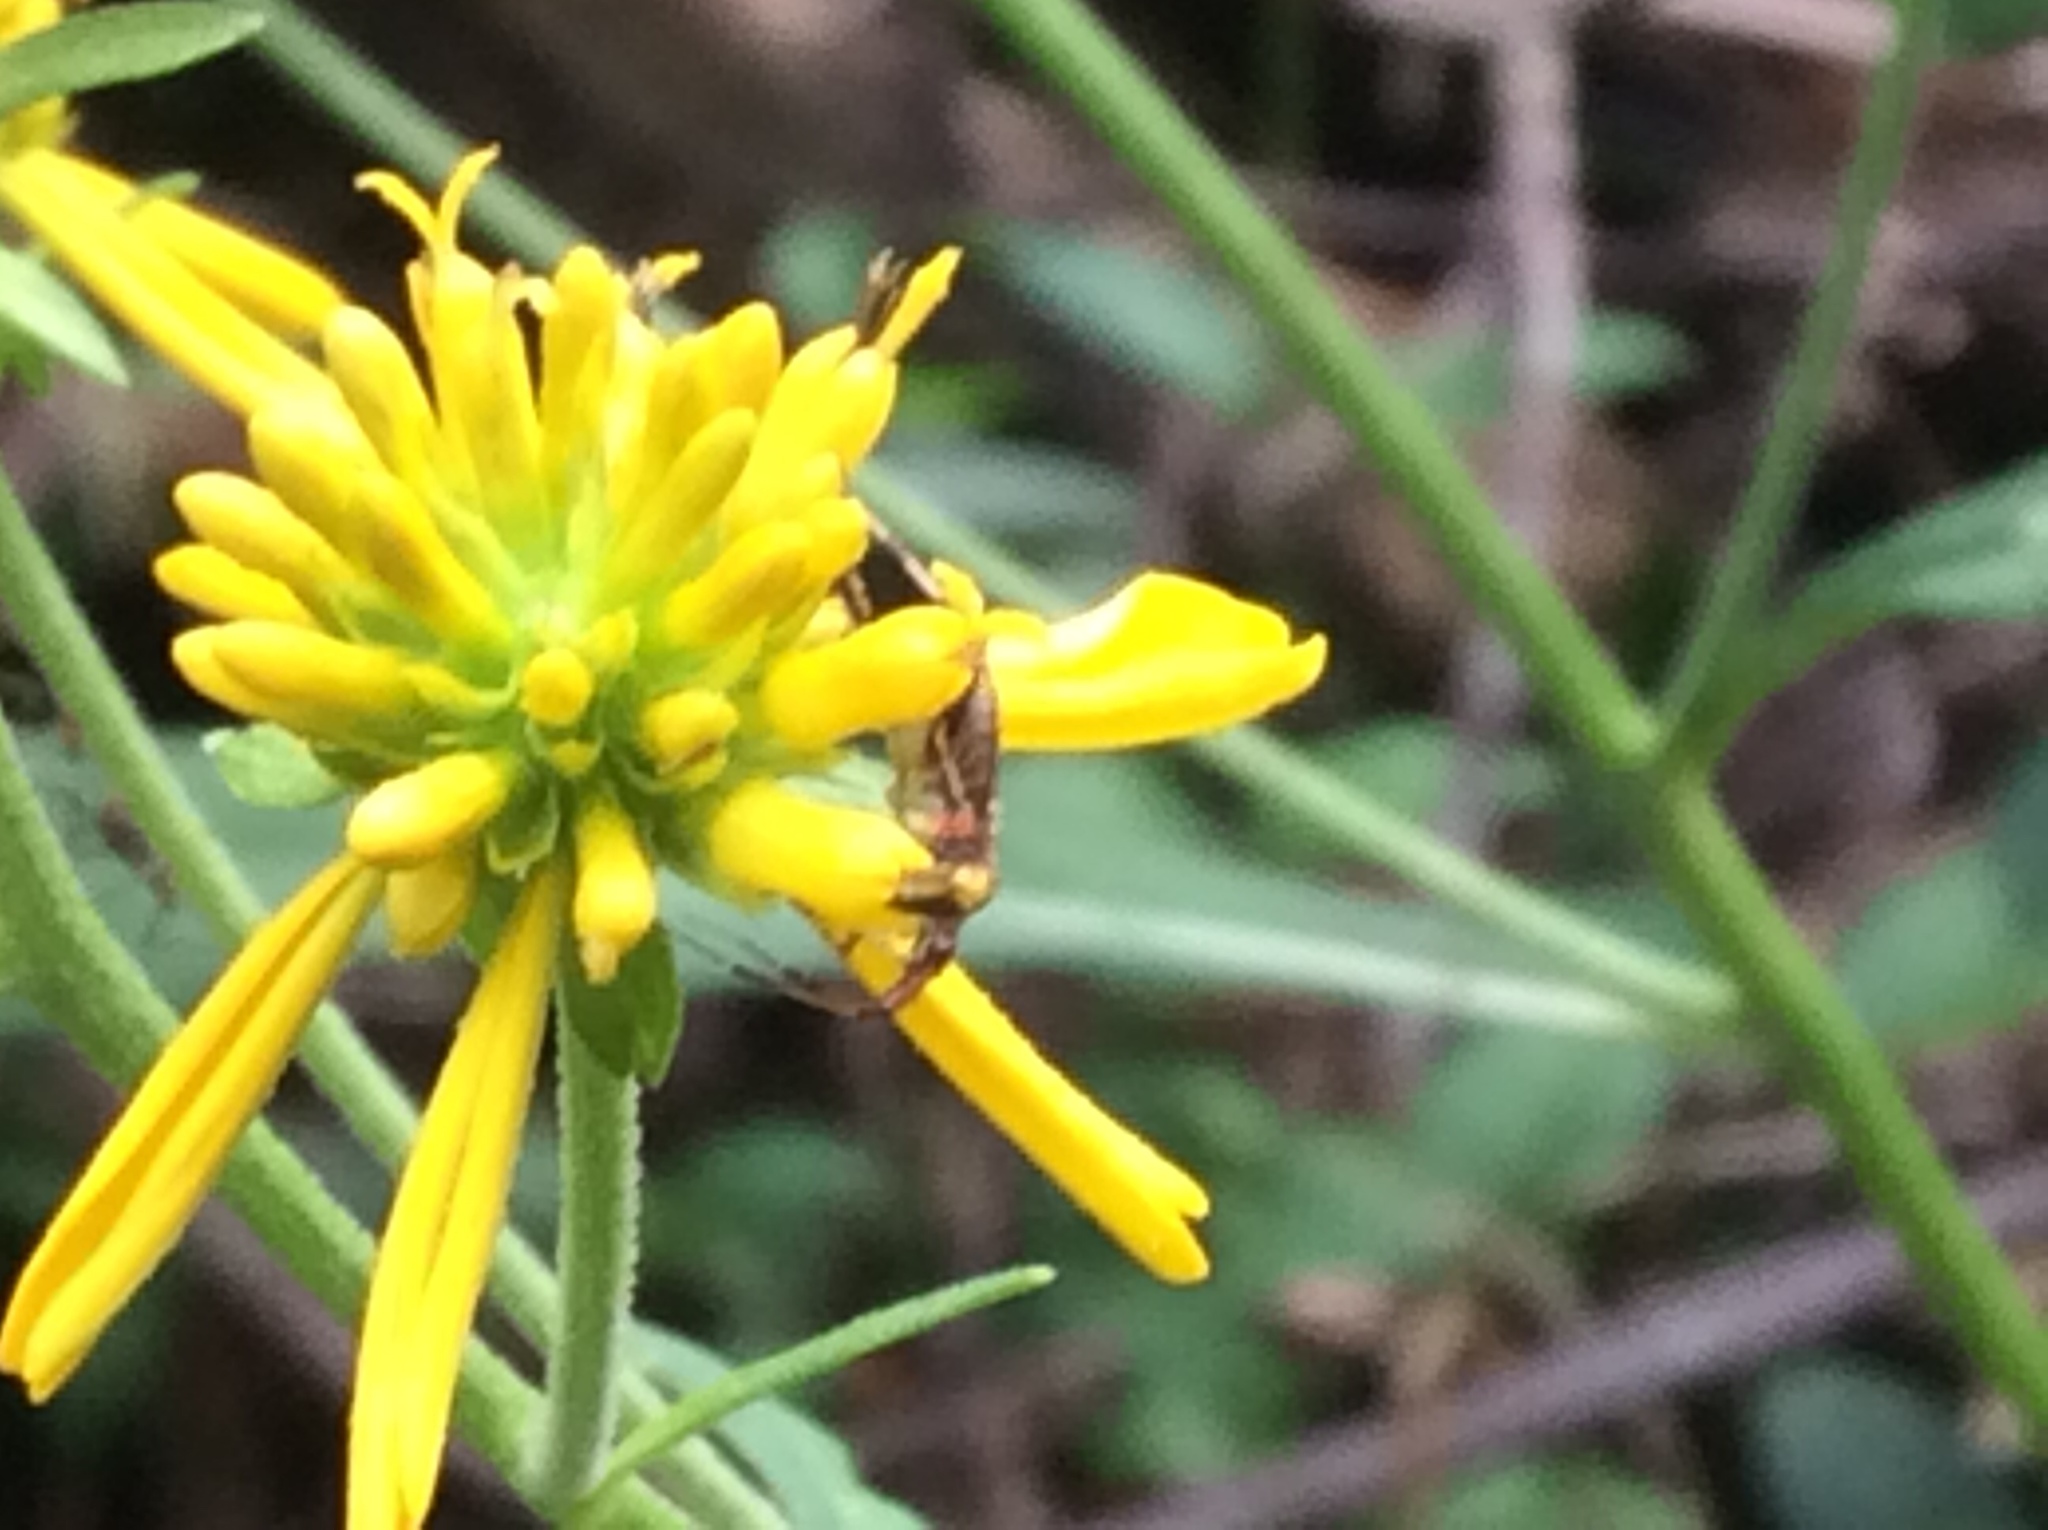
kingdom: Plantae
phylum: Tracheophyta
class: Magnoliopsida
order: Asterales
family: Asteraceae
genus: Verbesina
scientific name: Verbesina alternifolia
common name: Wingstem
